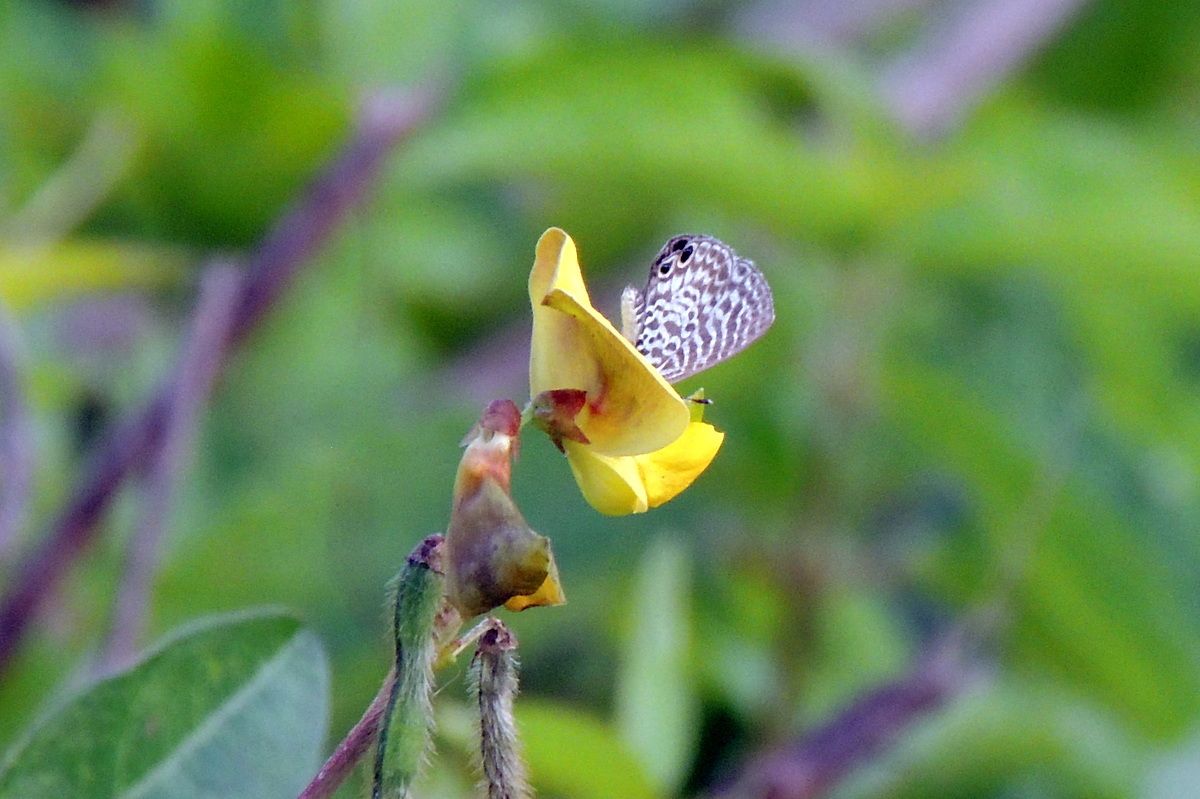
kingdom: Animalia
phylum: Arthropoda
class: Insecta
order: Lepidoptera
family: Lycaenidae
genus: Leptotes
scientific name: Leptotes cassius
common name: Cassius blue
